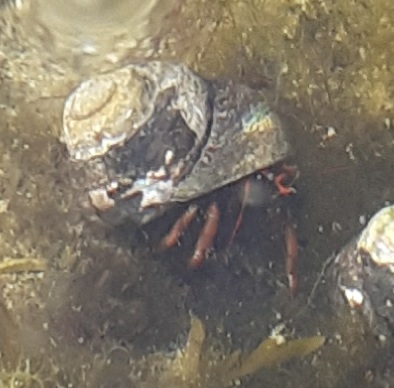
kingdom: Animalia
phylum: Arthropoda
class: Malacostraca
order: Decapoda
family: Diogenidae
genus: Clibanarius
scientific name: Clibanarius erythropus
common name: Hermit crab
